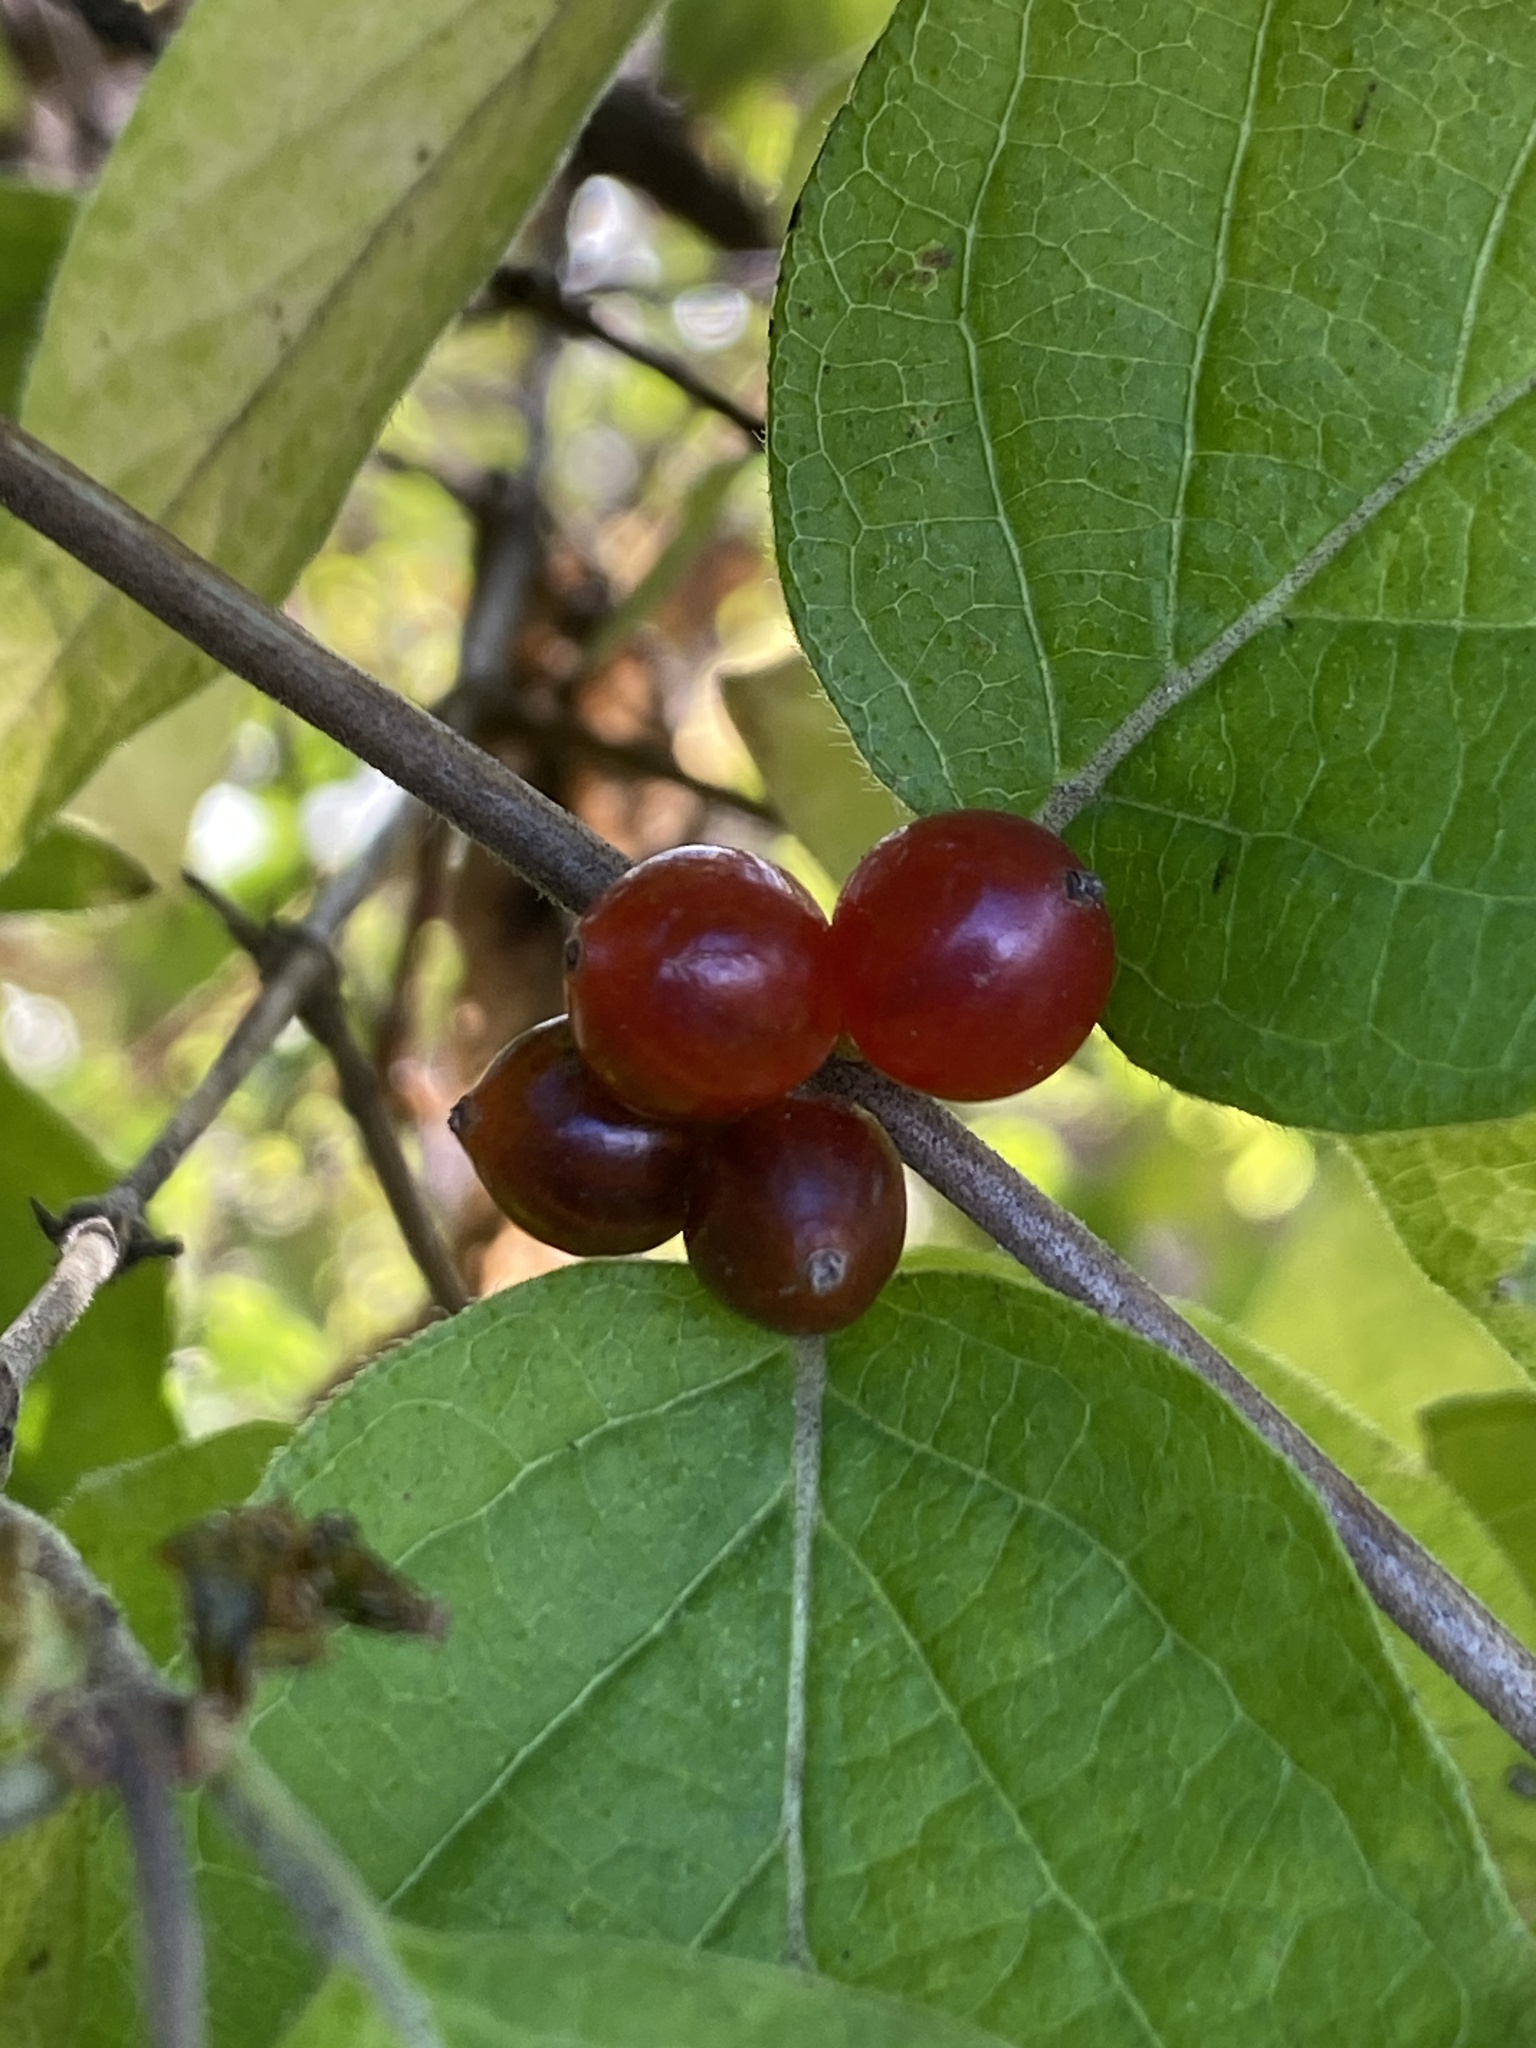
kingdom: Plantae
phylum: Tracheophyta
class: Magnoliopsida
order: Dipsacales
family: Caprifoliaceae
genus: Lonicera
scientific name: Lonicera maackii
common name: Amur honeysuckle
